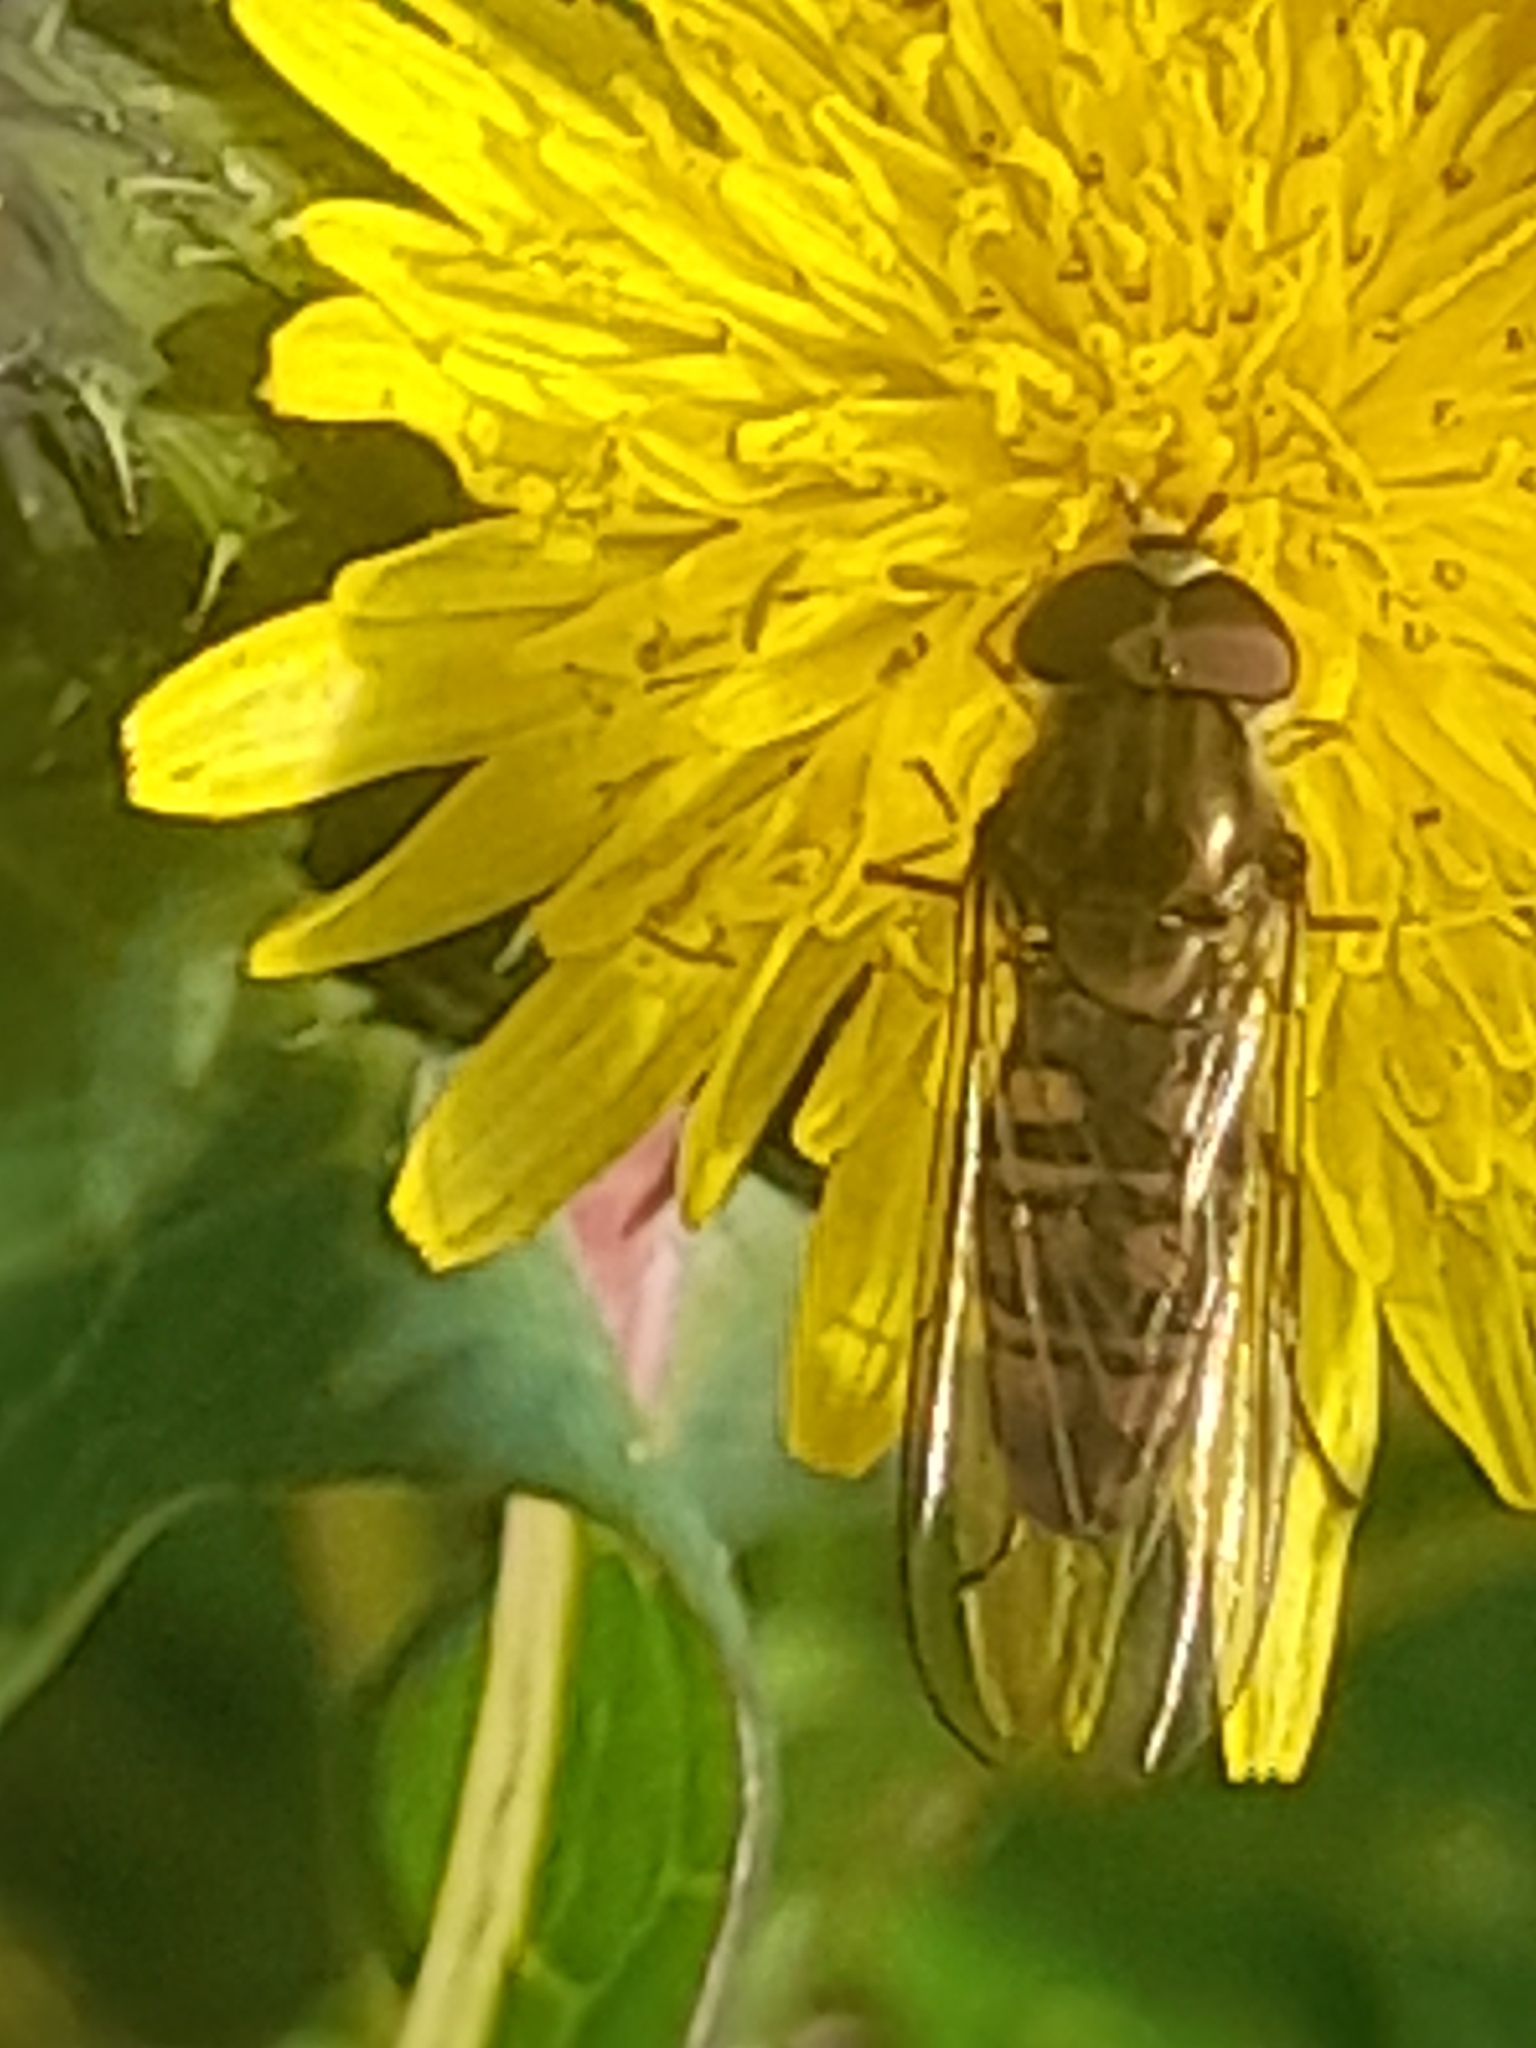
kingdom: Animalia
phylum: Arthropoda
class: Insecta
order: Diptera
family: Syrphidae
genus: Episyrphus
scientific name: Episyrphus balteatus
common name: Marmalade hoverfly
